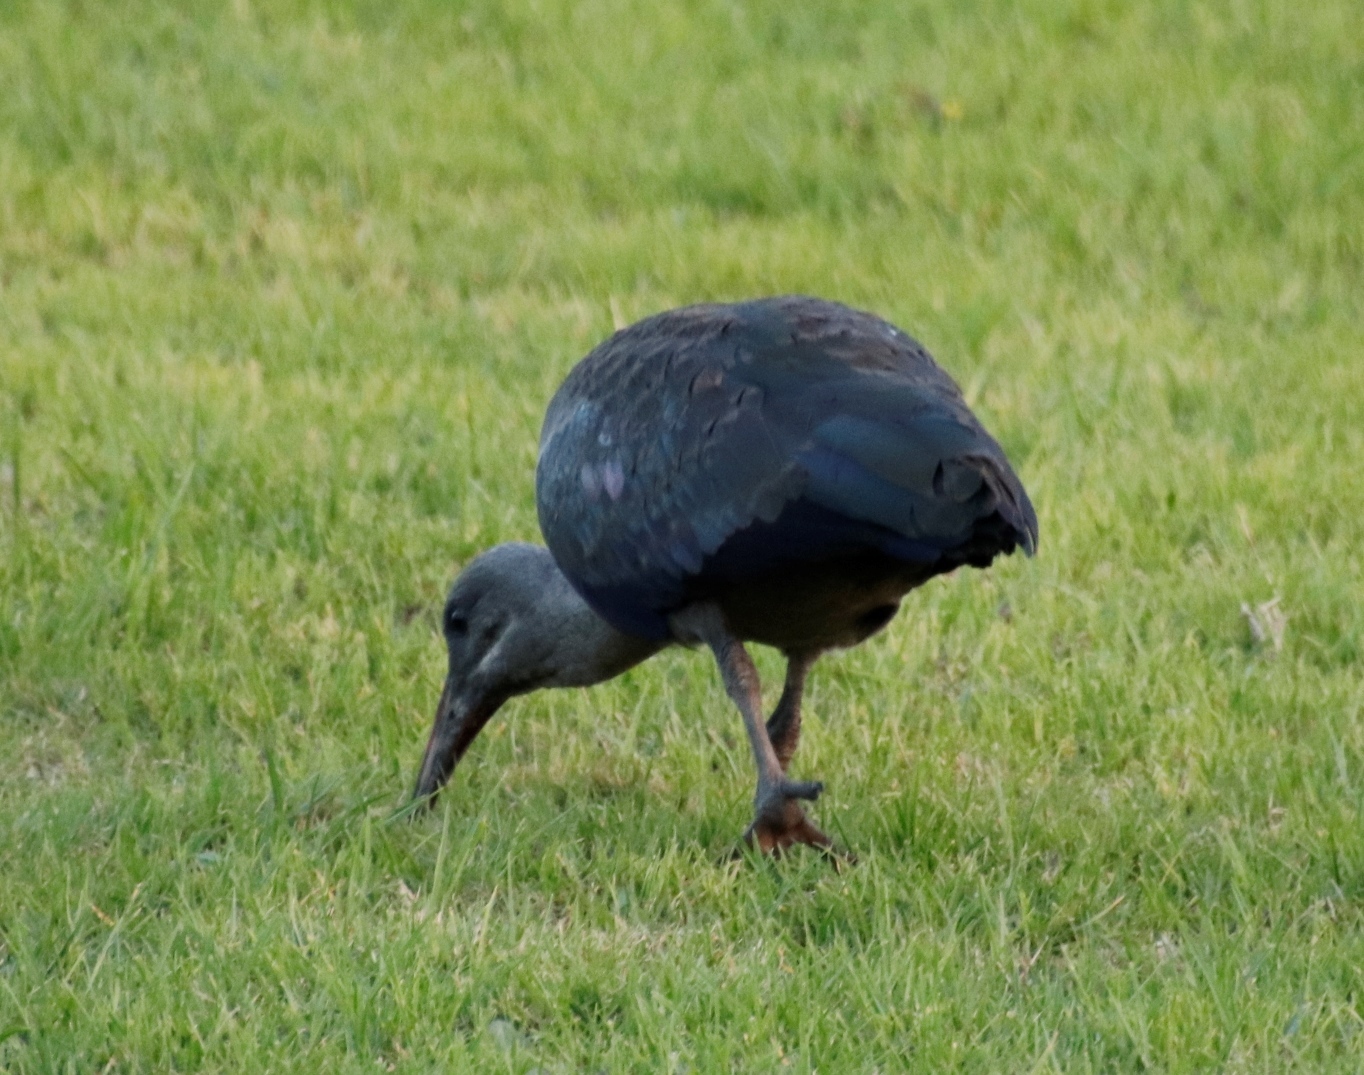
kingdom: Animalia
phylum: Chordata
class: Aves
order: Pelecaniformes
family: Threskiornithidae
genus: Bostrychia
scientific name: Bostrychia hagedash
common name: Hadada ibis
